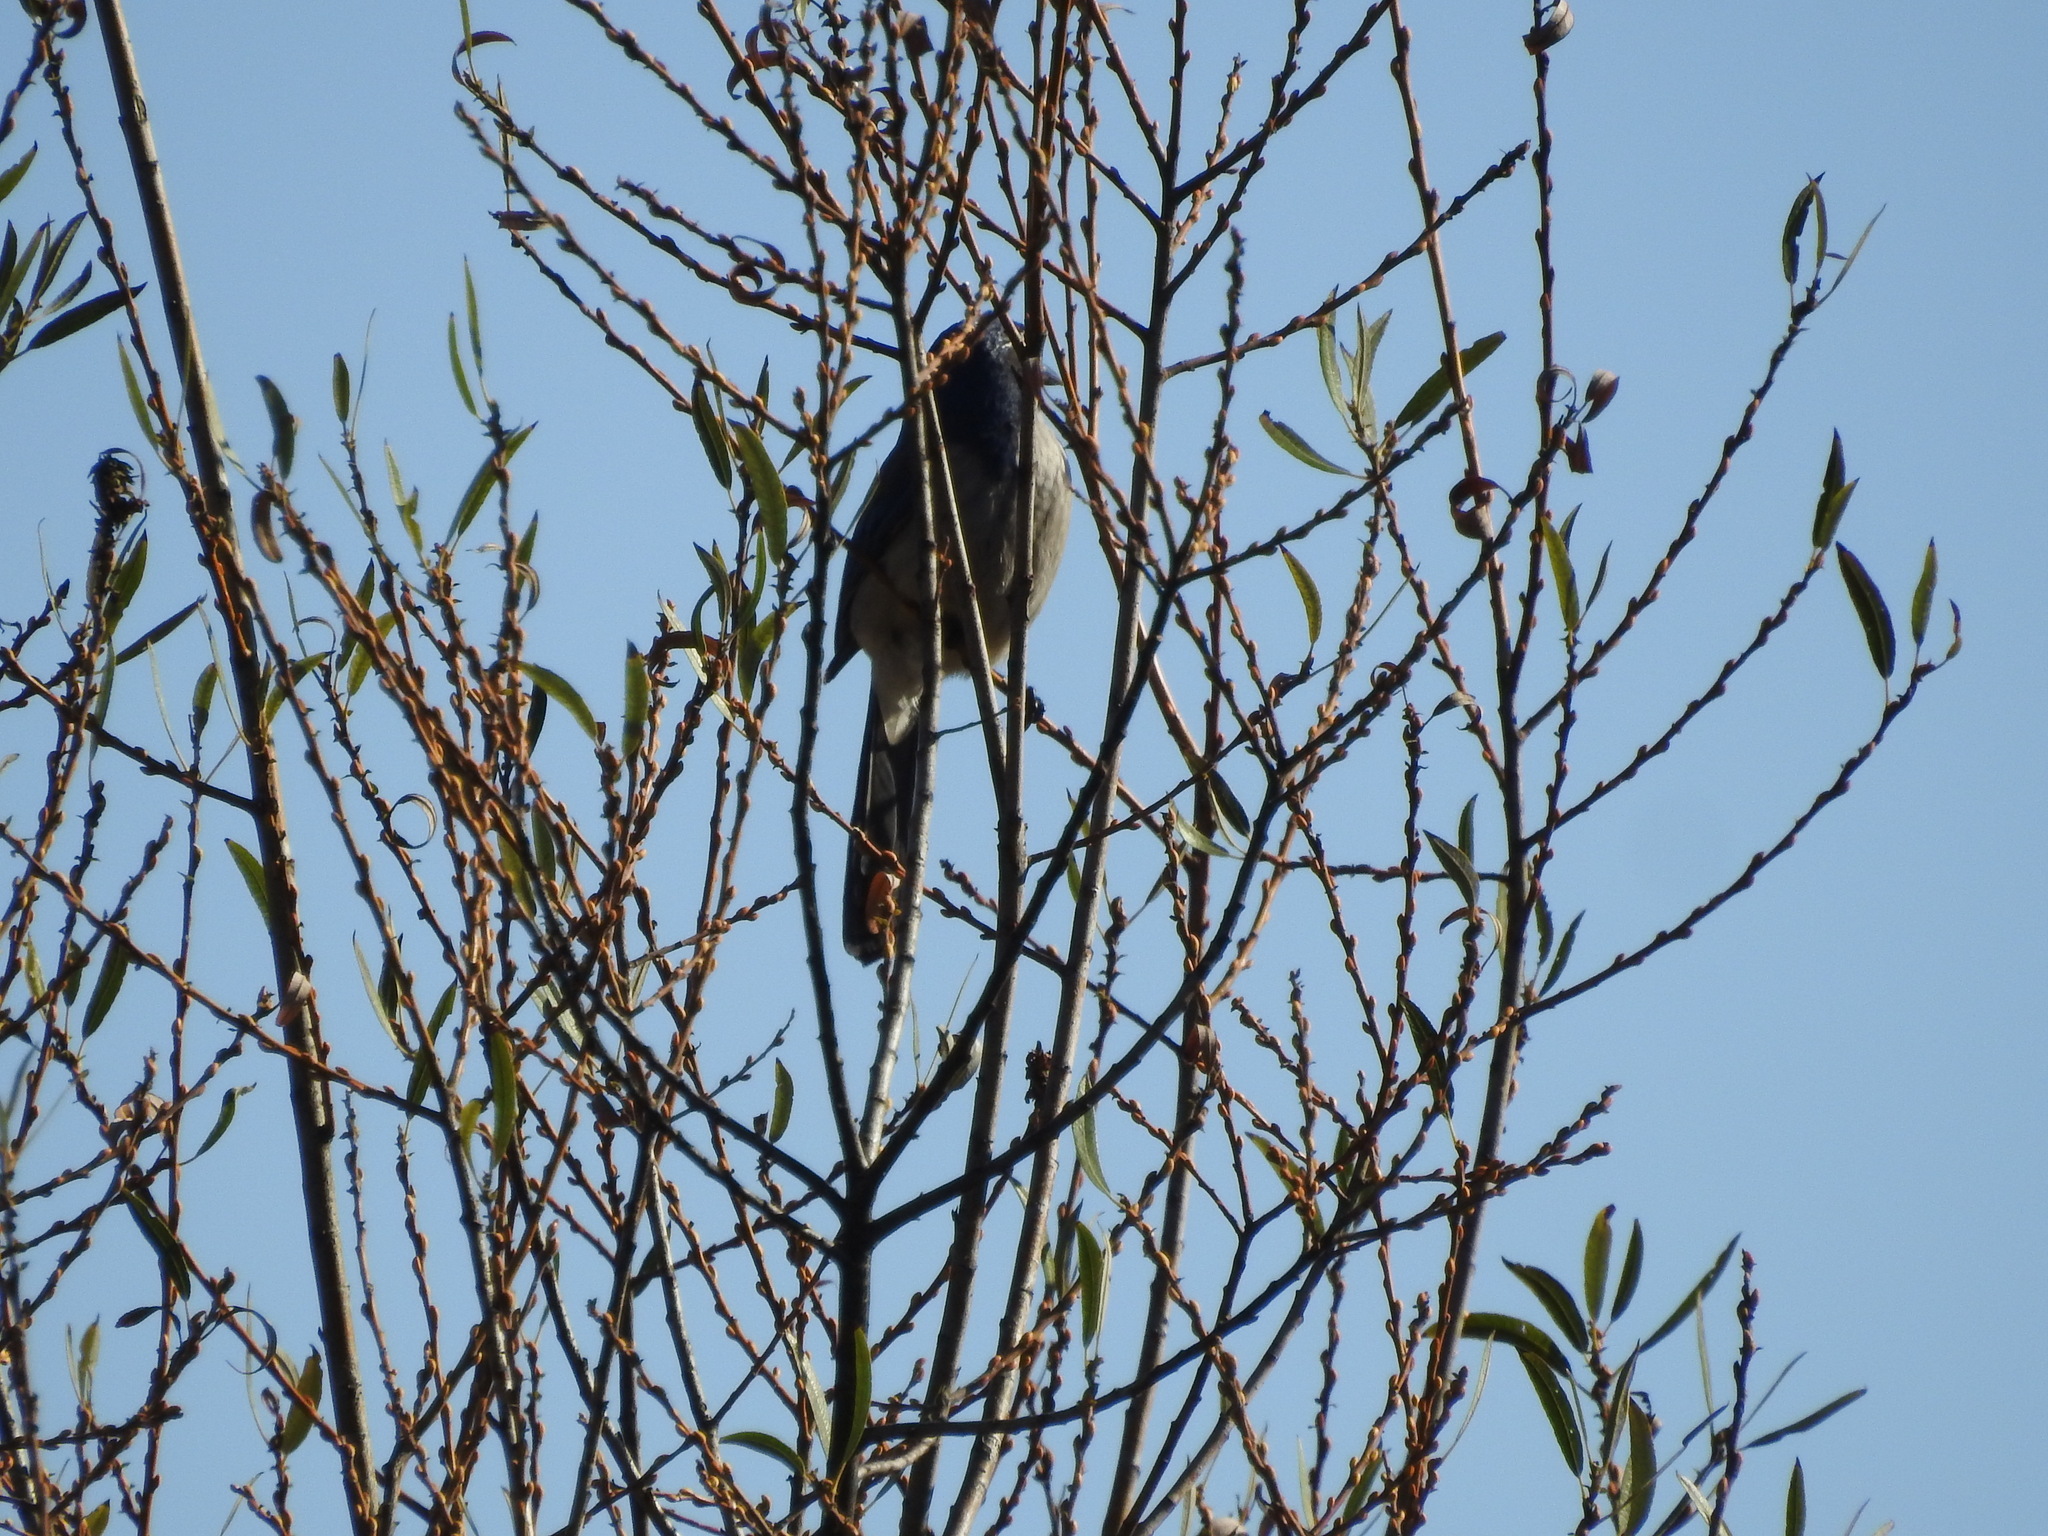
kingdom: Animalia
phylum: Chordata
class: Aves
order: Passeriformes
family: Corvidae
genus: Aphelocoma
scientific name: Aphelocoma californica
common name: California scrub-jay
